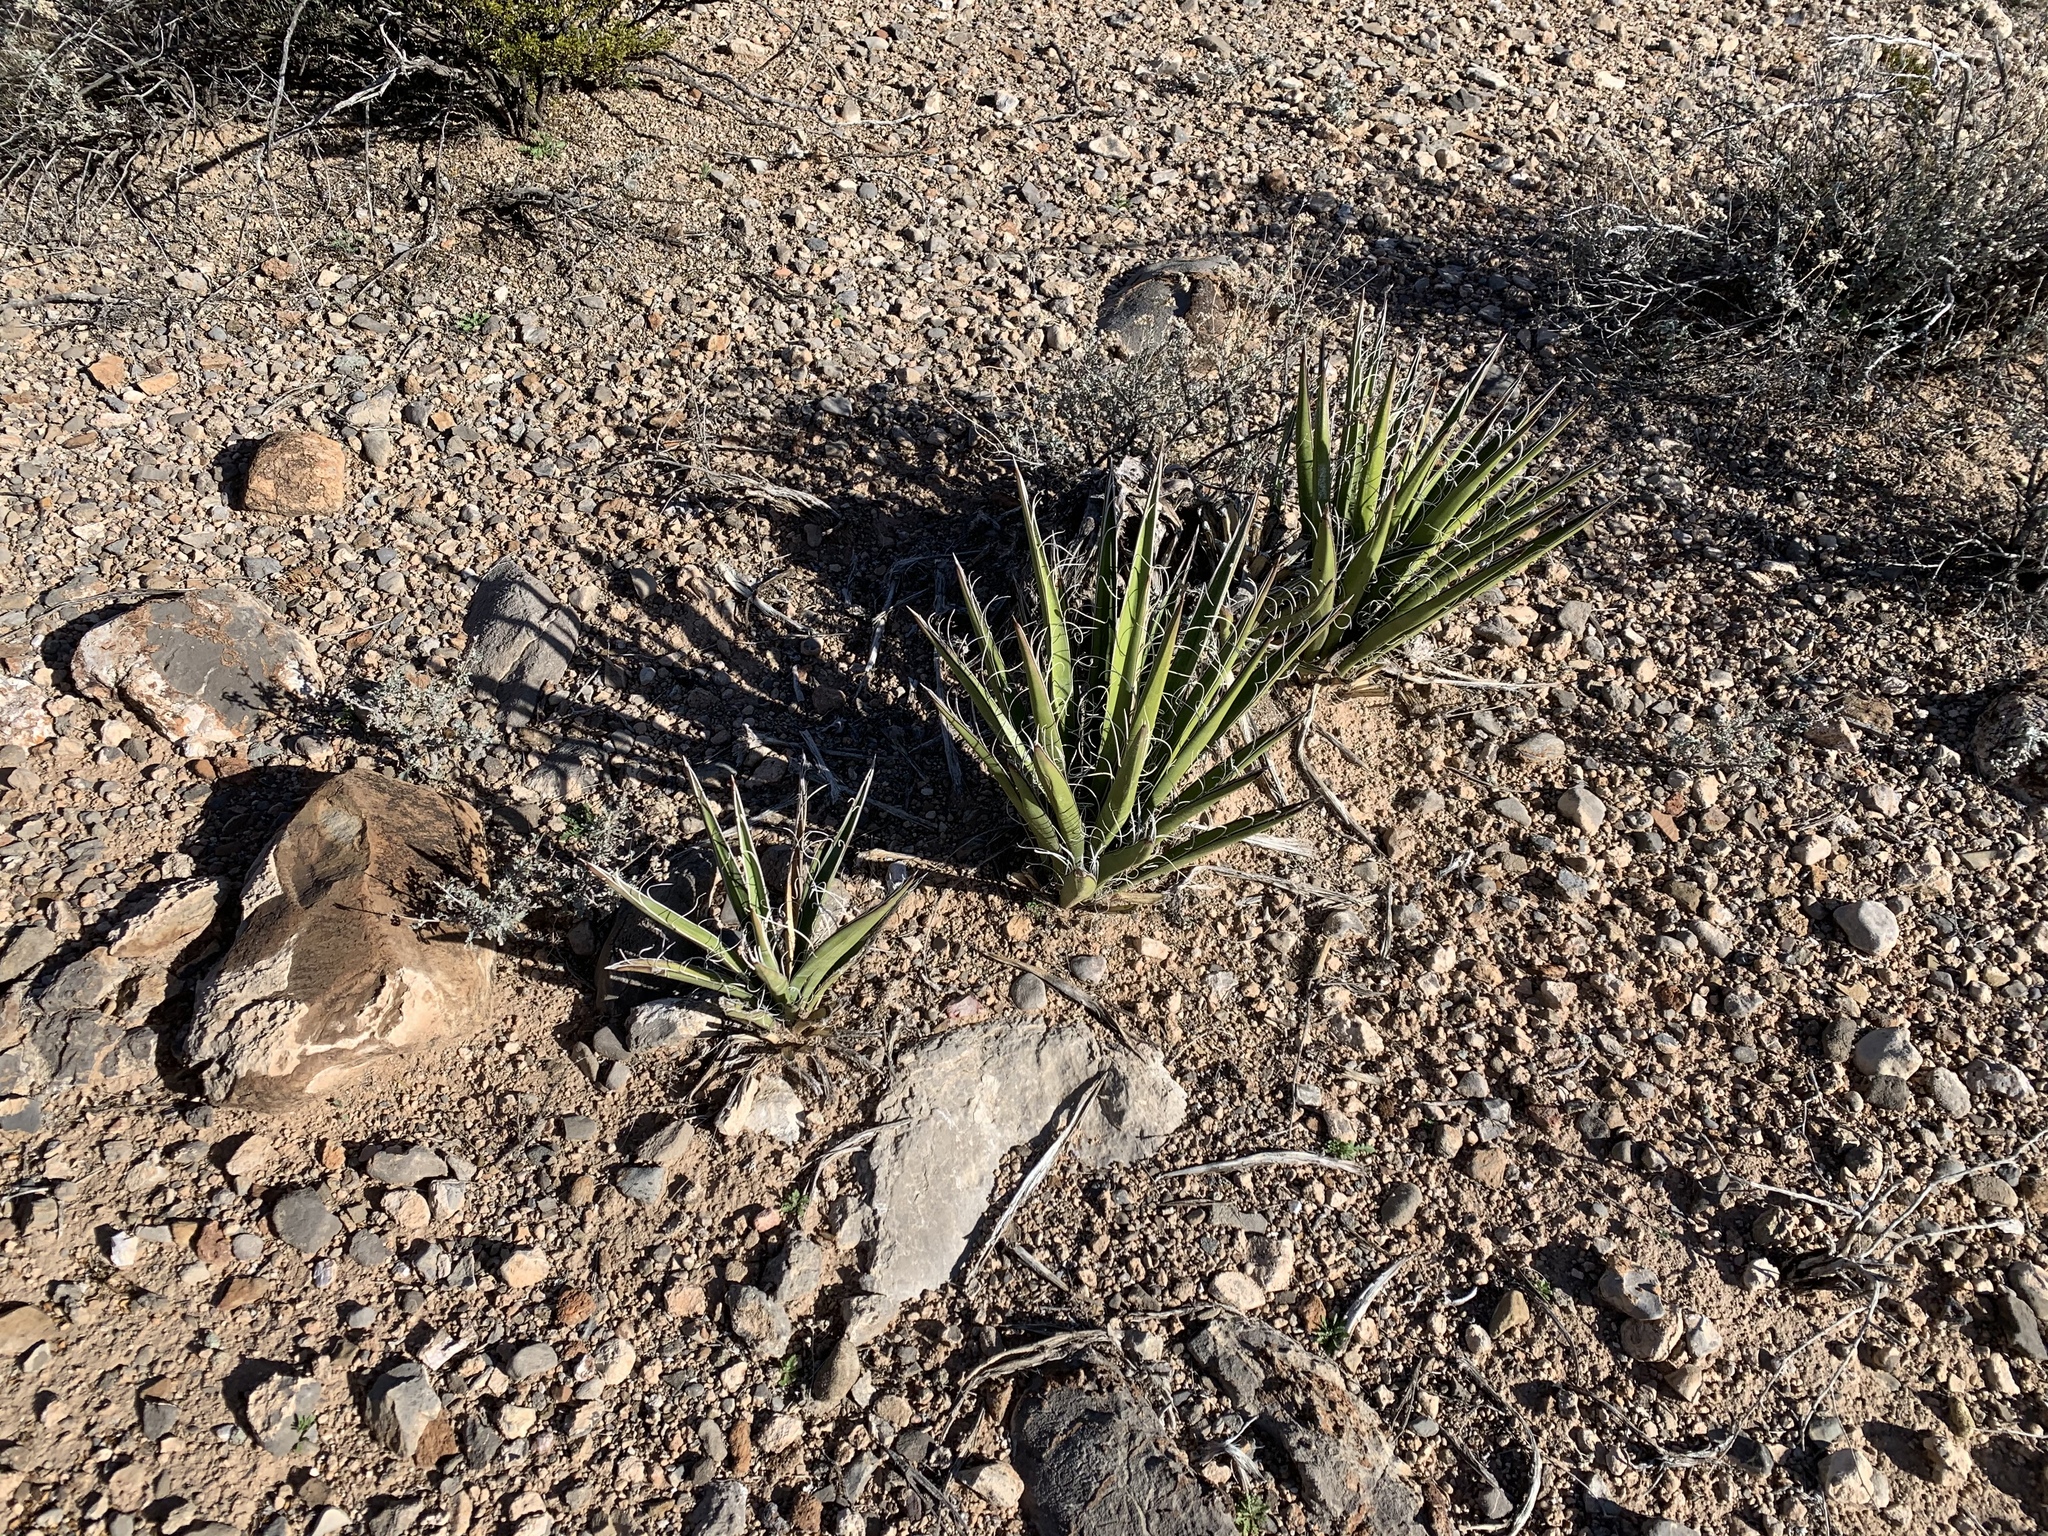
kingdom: Plantae
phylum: Tracheophyta
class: Liliopsida
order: Asparagales
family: Asparagaceae
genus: Yucca
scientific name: Yucca baccata
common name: Banana yucca
